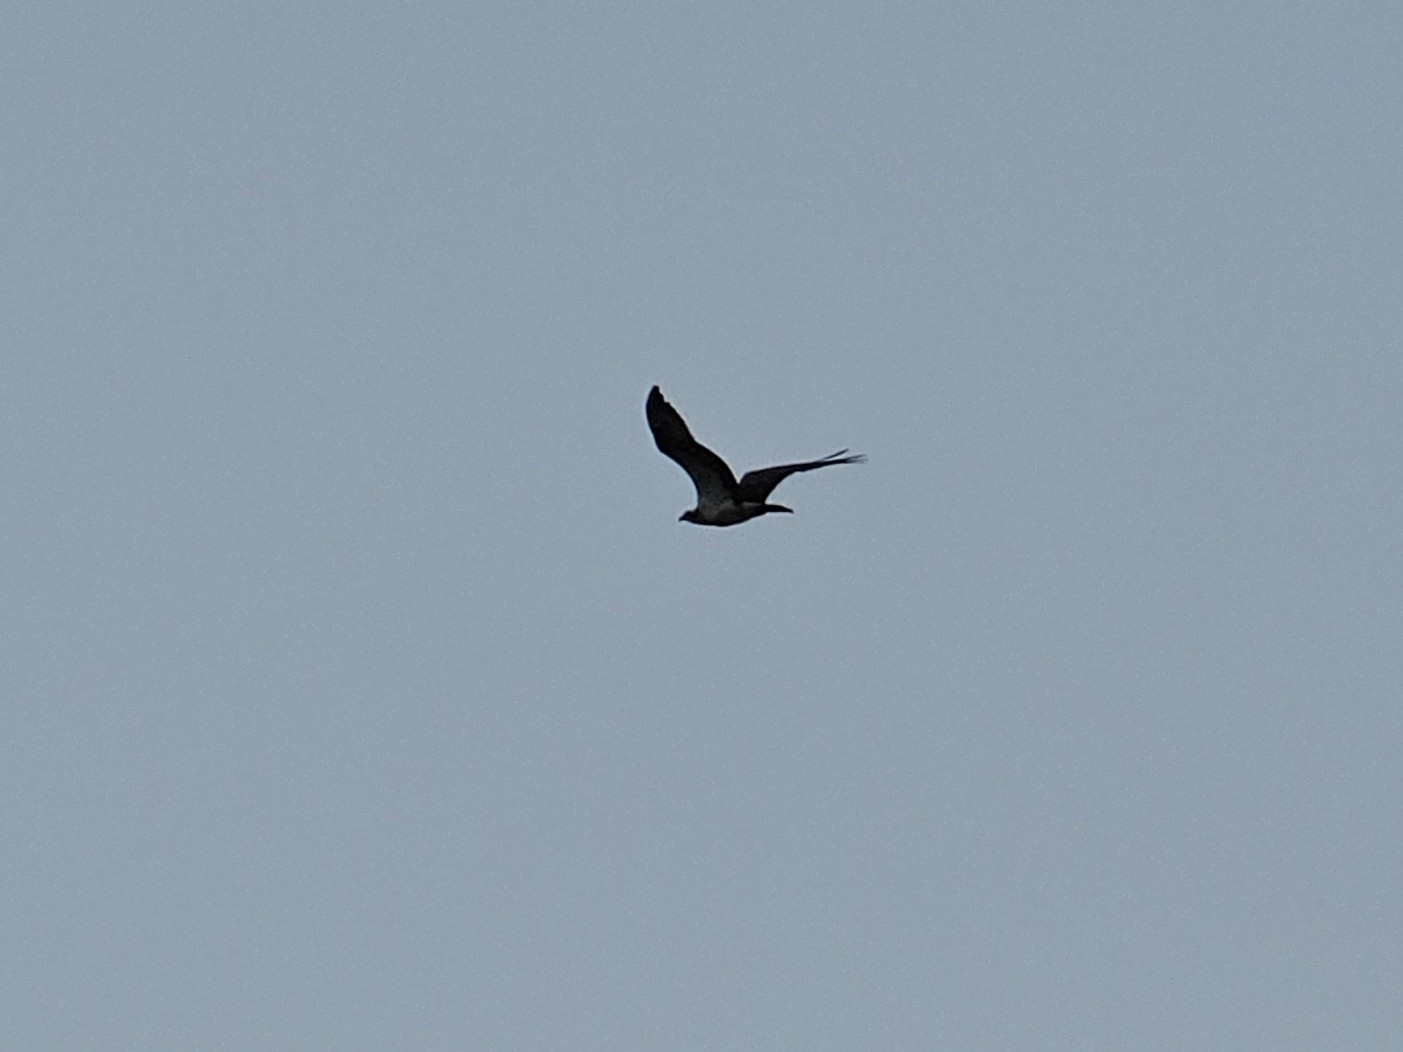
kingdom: Animalia
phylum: Chordata
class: Aves
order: Accipitriformes
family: Pandionidae
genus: Pandion
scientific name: Pandion haliaetus
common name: Osprey
